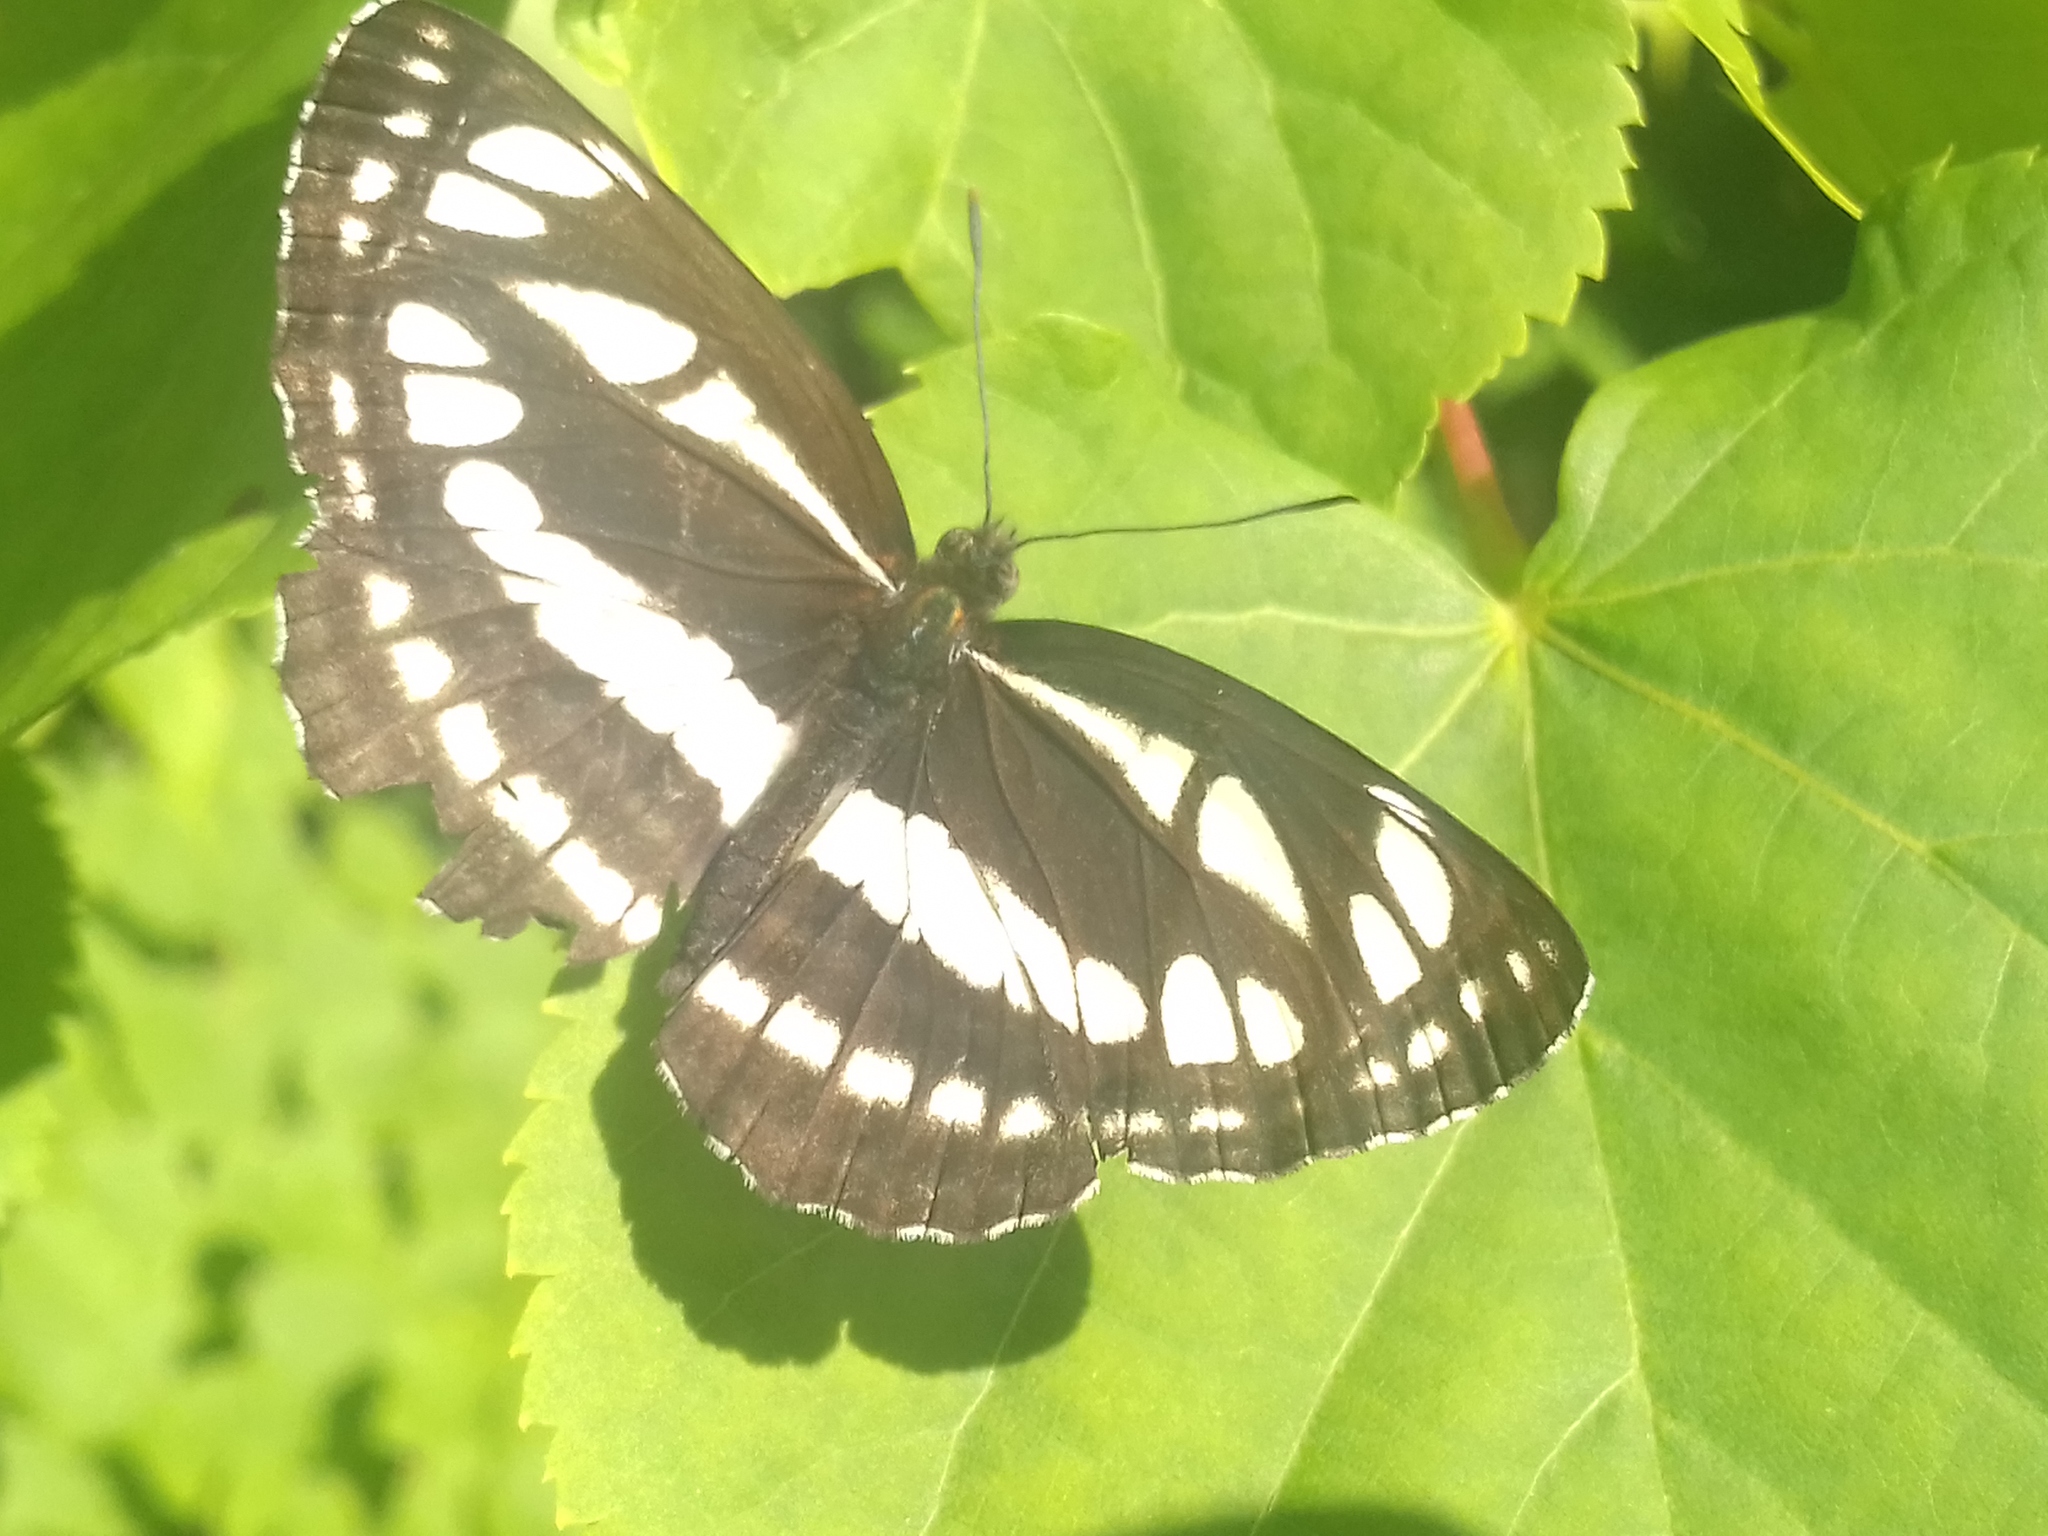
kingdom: Animalia
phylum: Arthropoda
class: Insecta
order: Lepidoptera
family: Nymphalidae
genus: Neptis
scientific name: Neptis sappho
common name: Common glider
